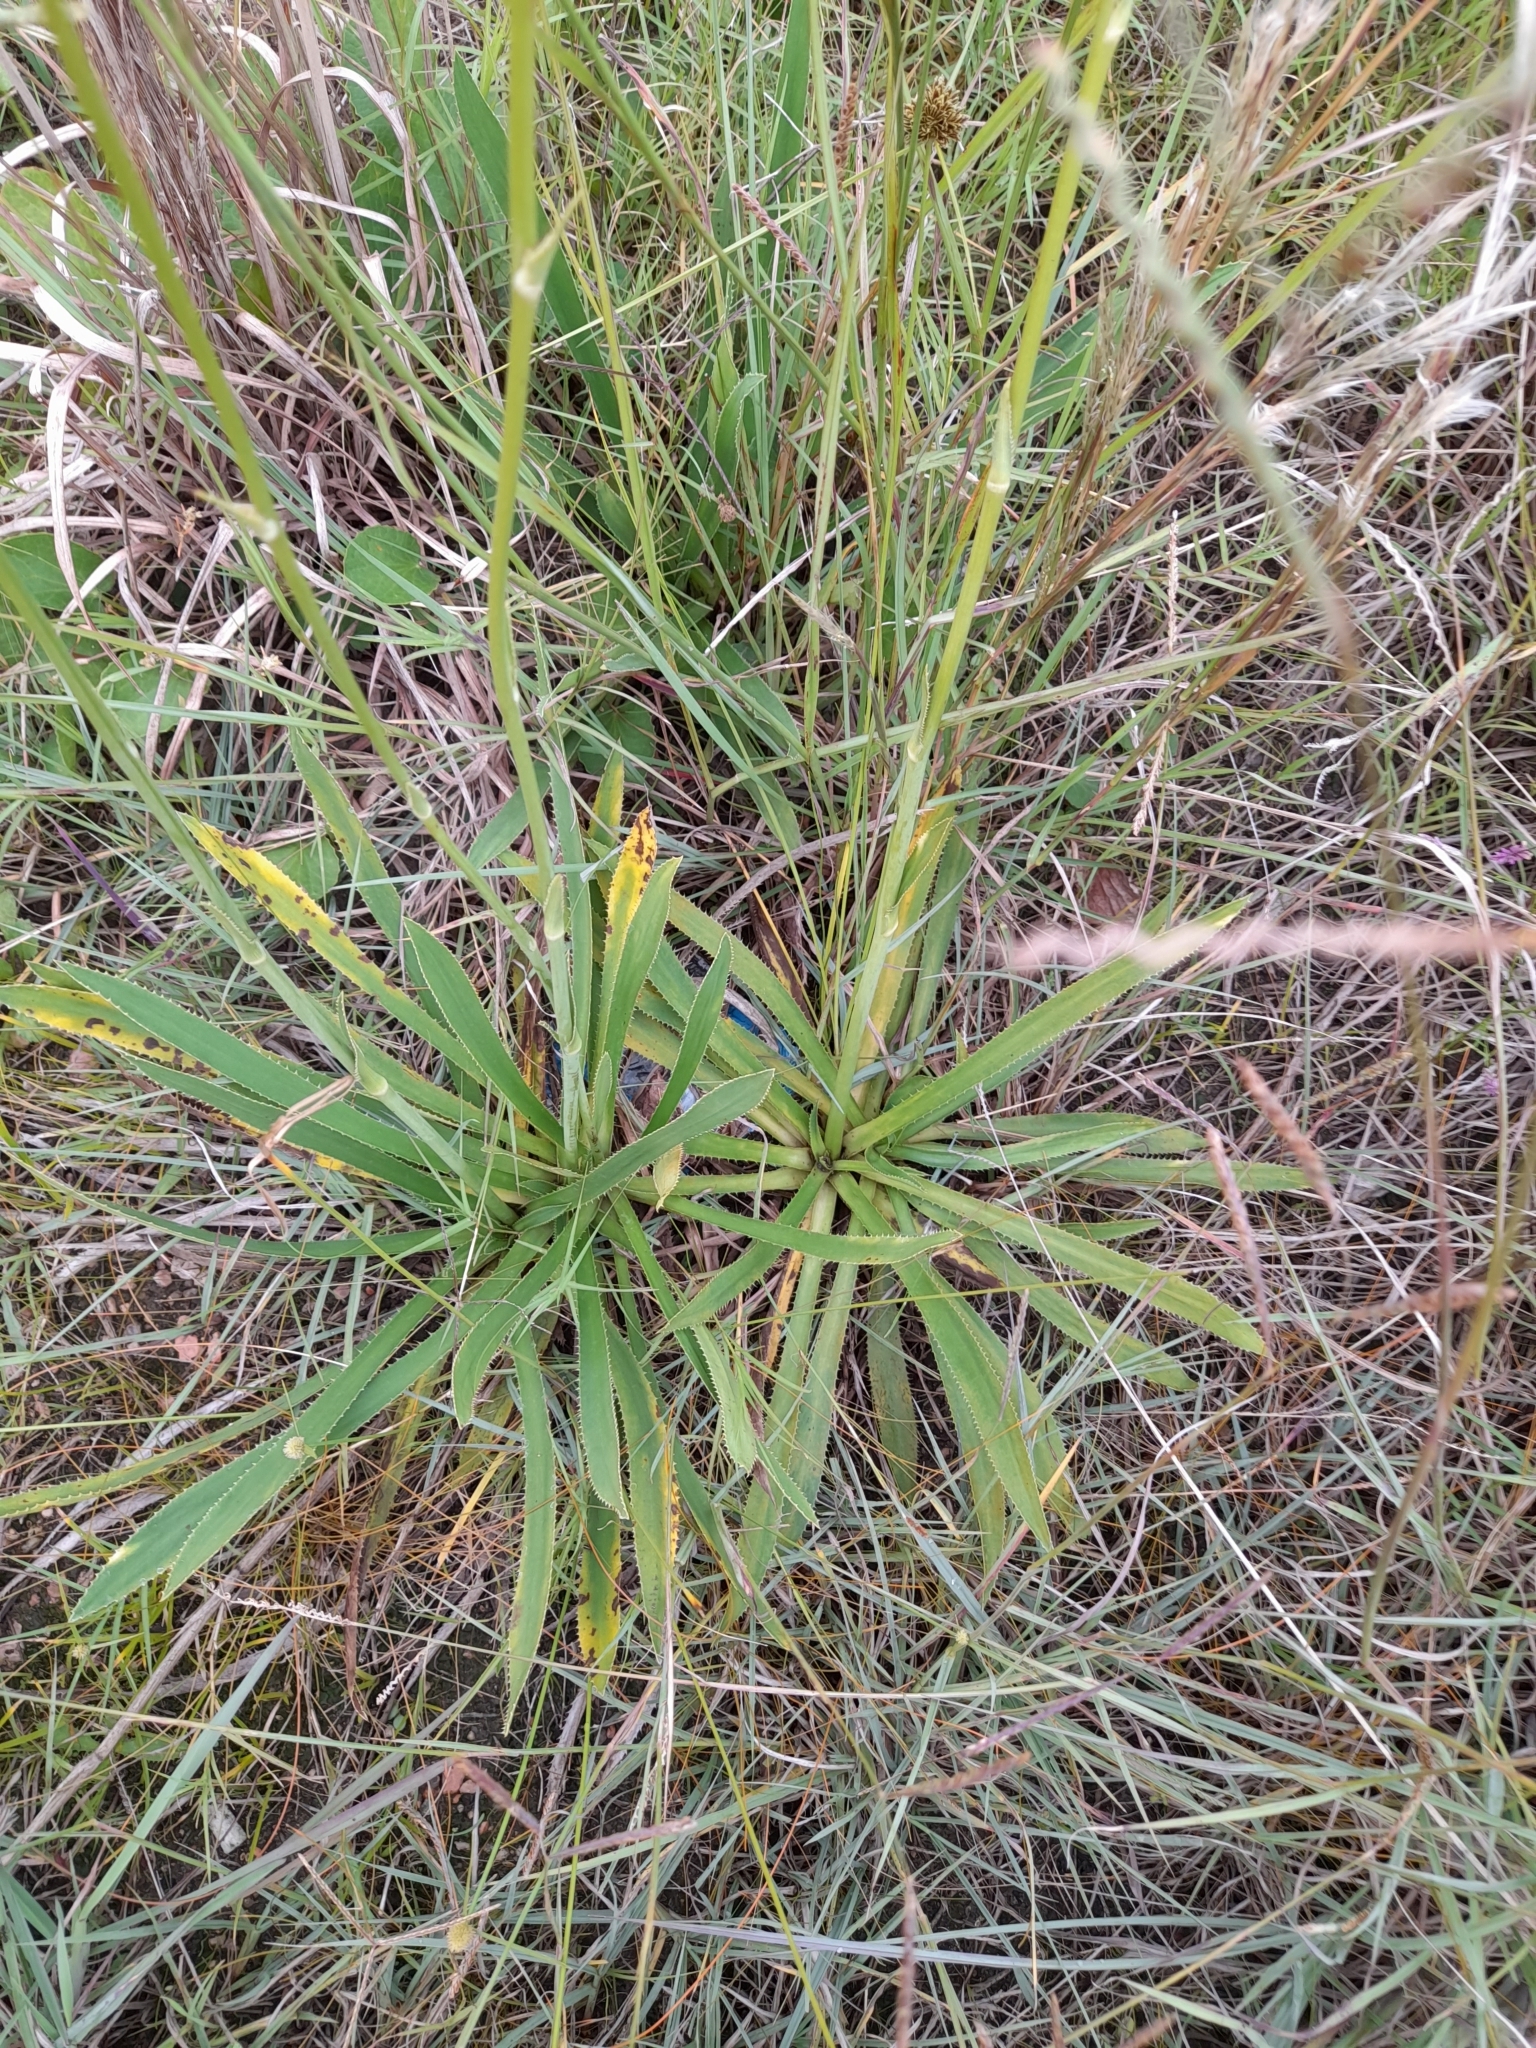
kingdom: Plantae
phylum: Tracheophyta
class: Magnoliopsida
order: Apiales
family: Apiaceae
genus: Eryngium
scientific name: Eryngium elegans
